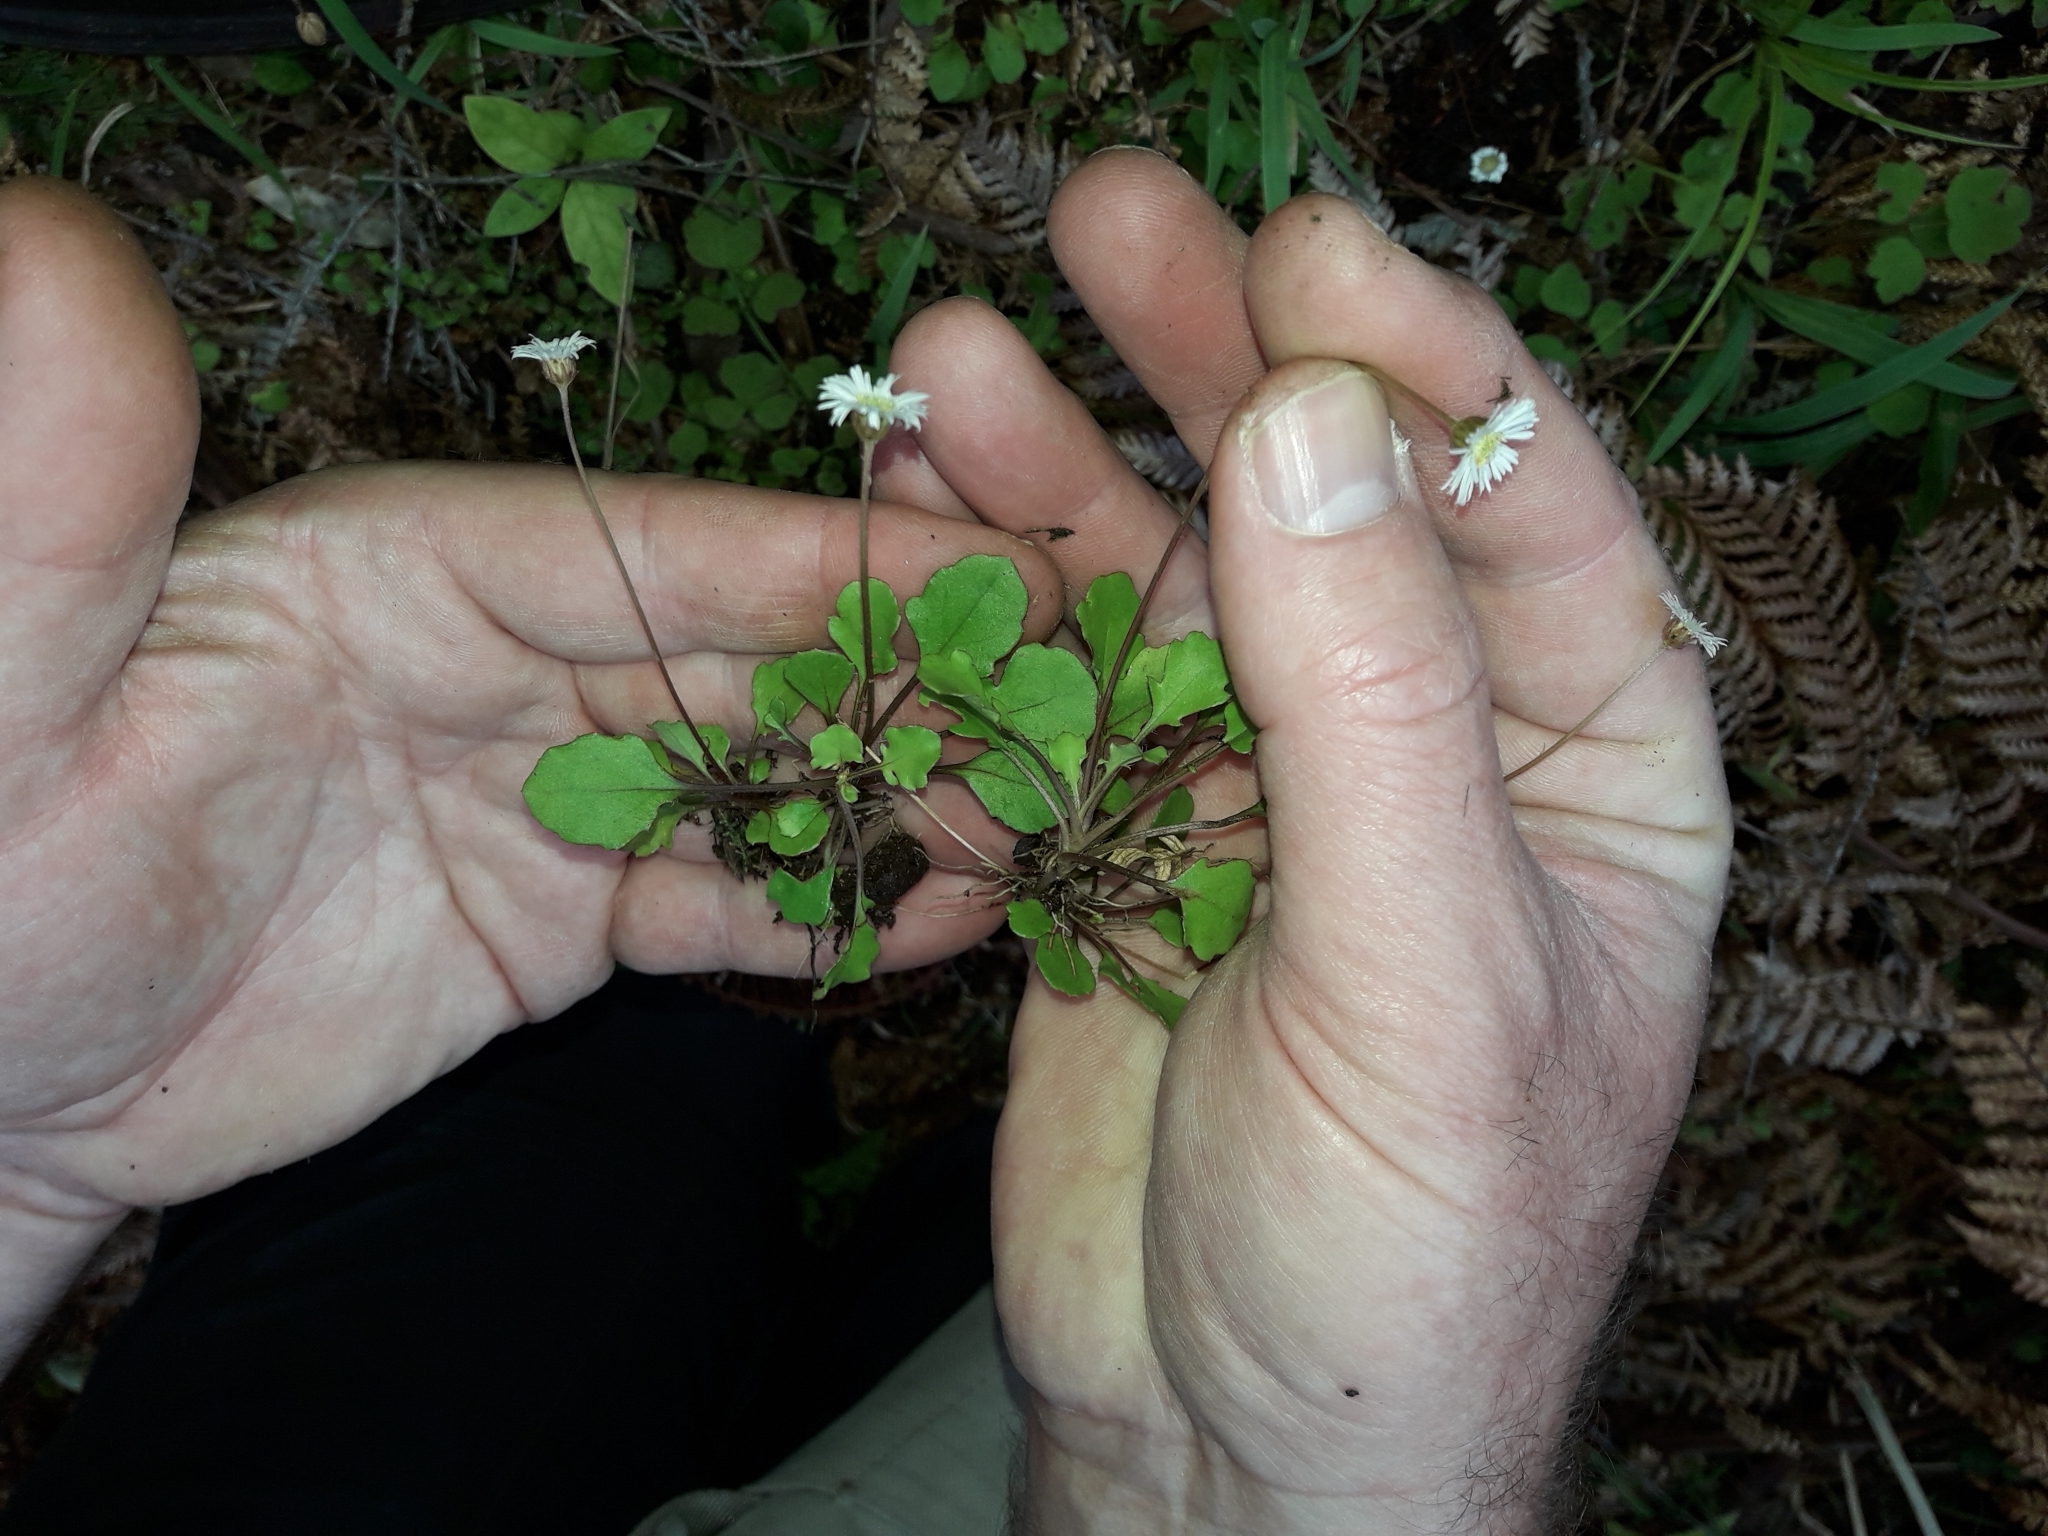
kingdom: Plantae
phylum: Tracheophyta
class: Magnoliopsida
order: Asterales
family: Asteraceae
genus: Lagenophora
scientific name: Lagenophora pumila
